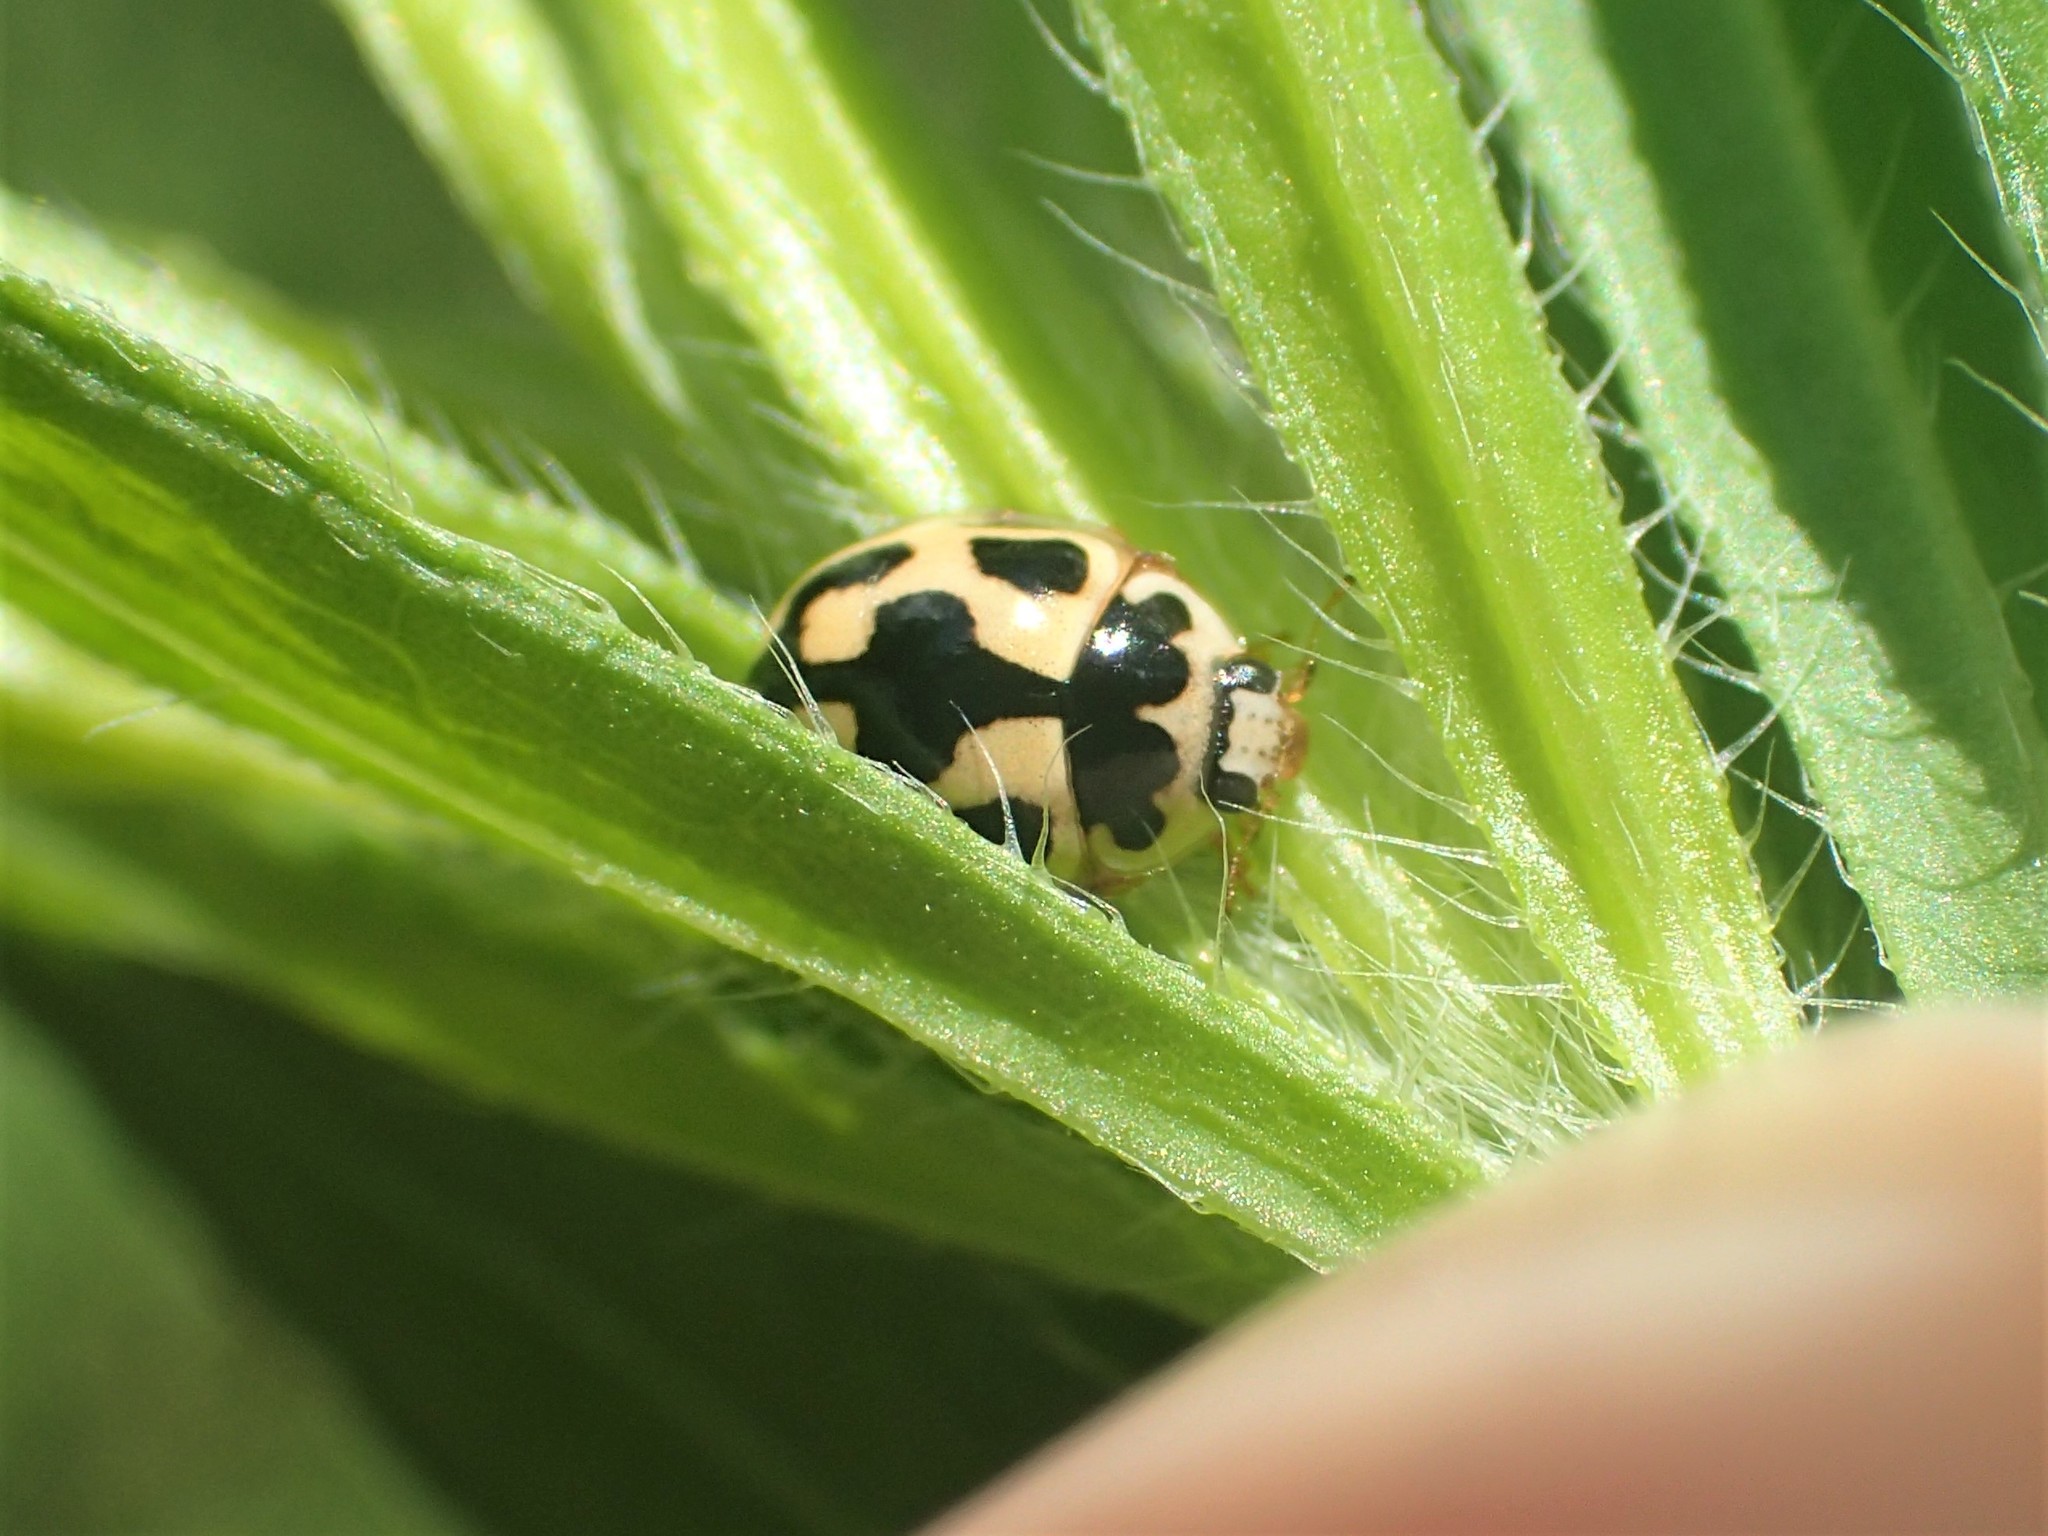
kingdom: Animalia
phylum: Arthropoda
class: Insecta
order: Coleoptera
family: Coccinellidae
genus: Propylaea
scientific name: Propylaea quatuordecimpunctata
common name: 14-spotted ladybird beetle
